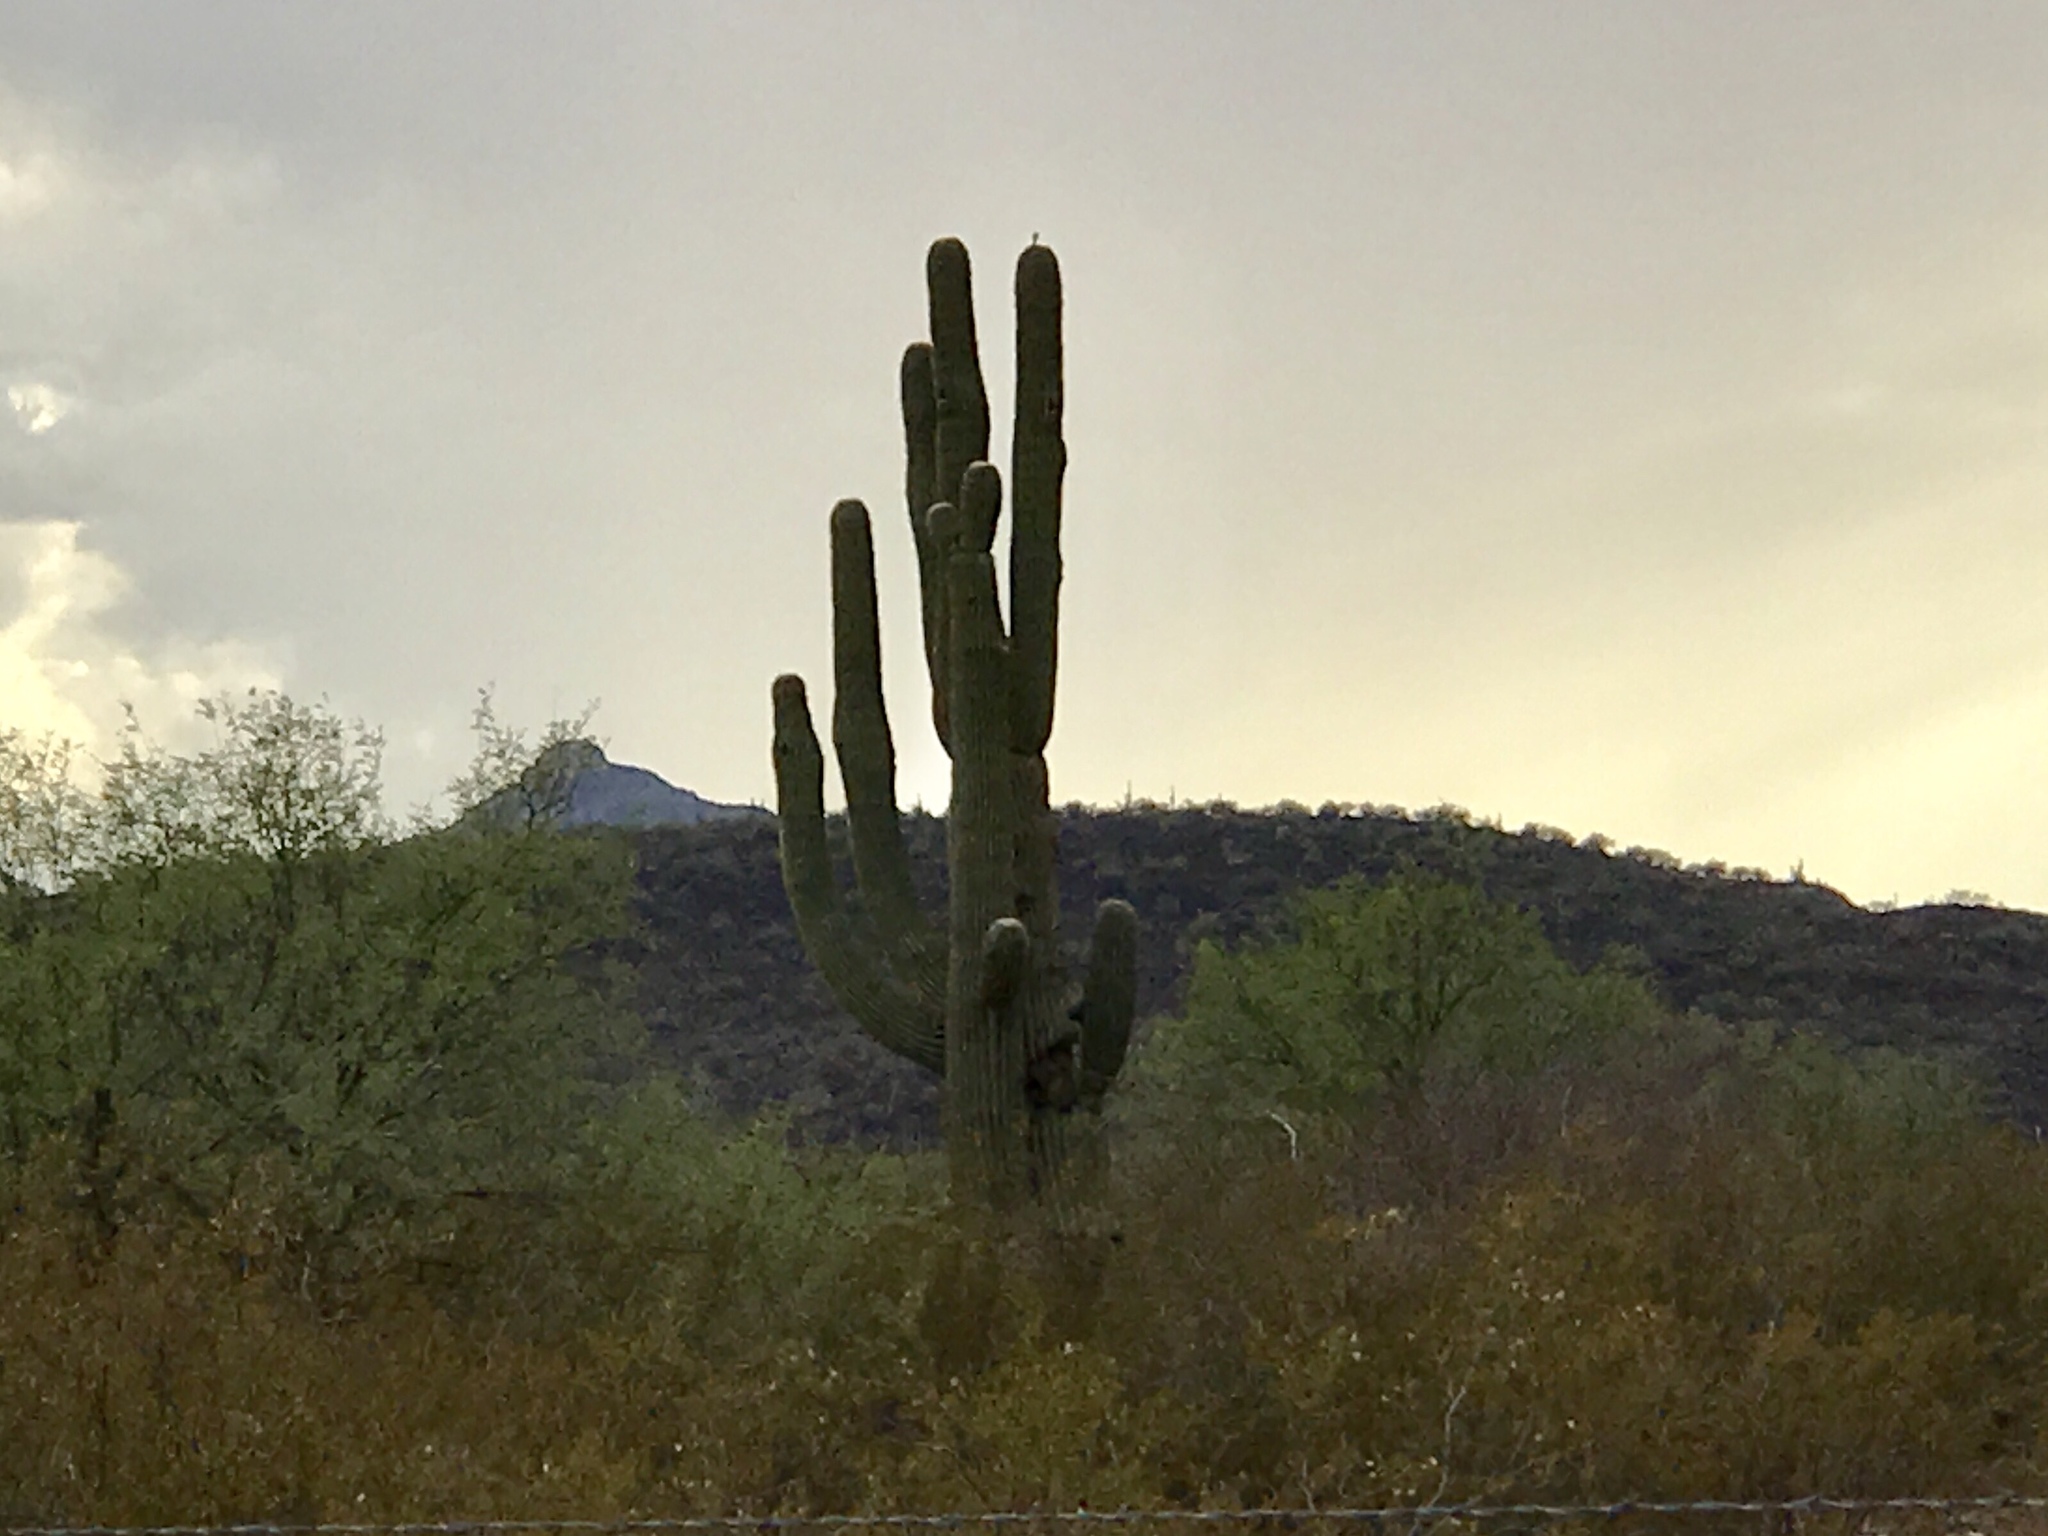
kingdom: Plantae
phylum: Tracheophyta
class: Magnoliopsida
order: Caryophyllales
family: Cactaceae
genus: Carnegiea
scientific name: Carnegiea gigantea
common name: Saguaro
